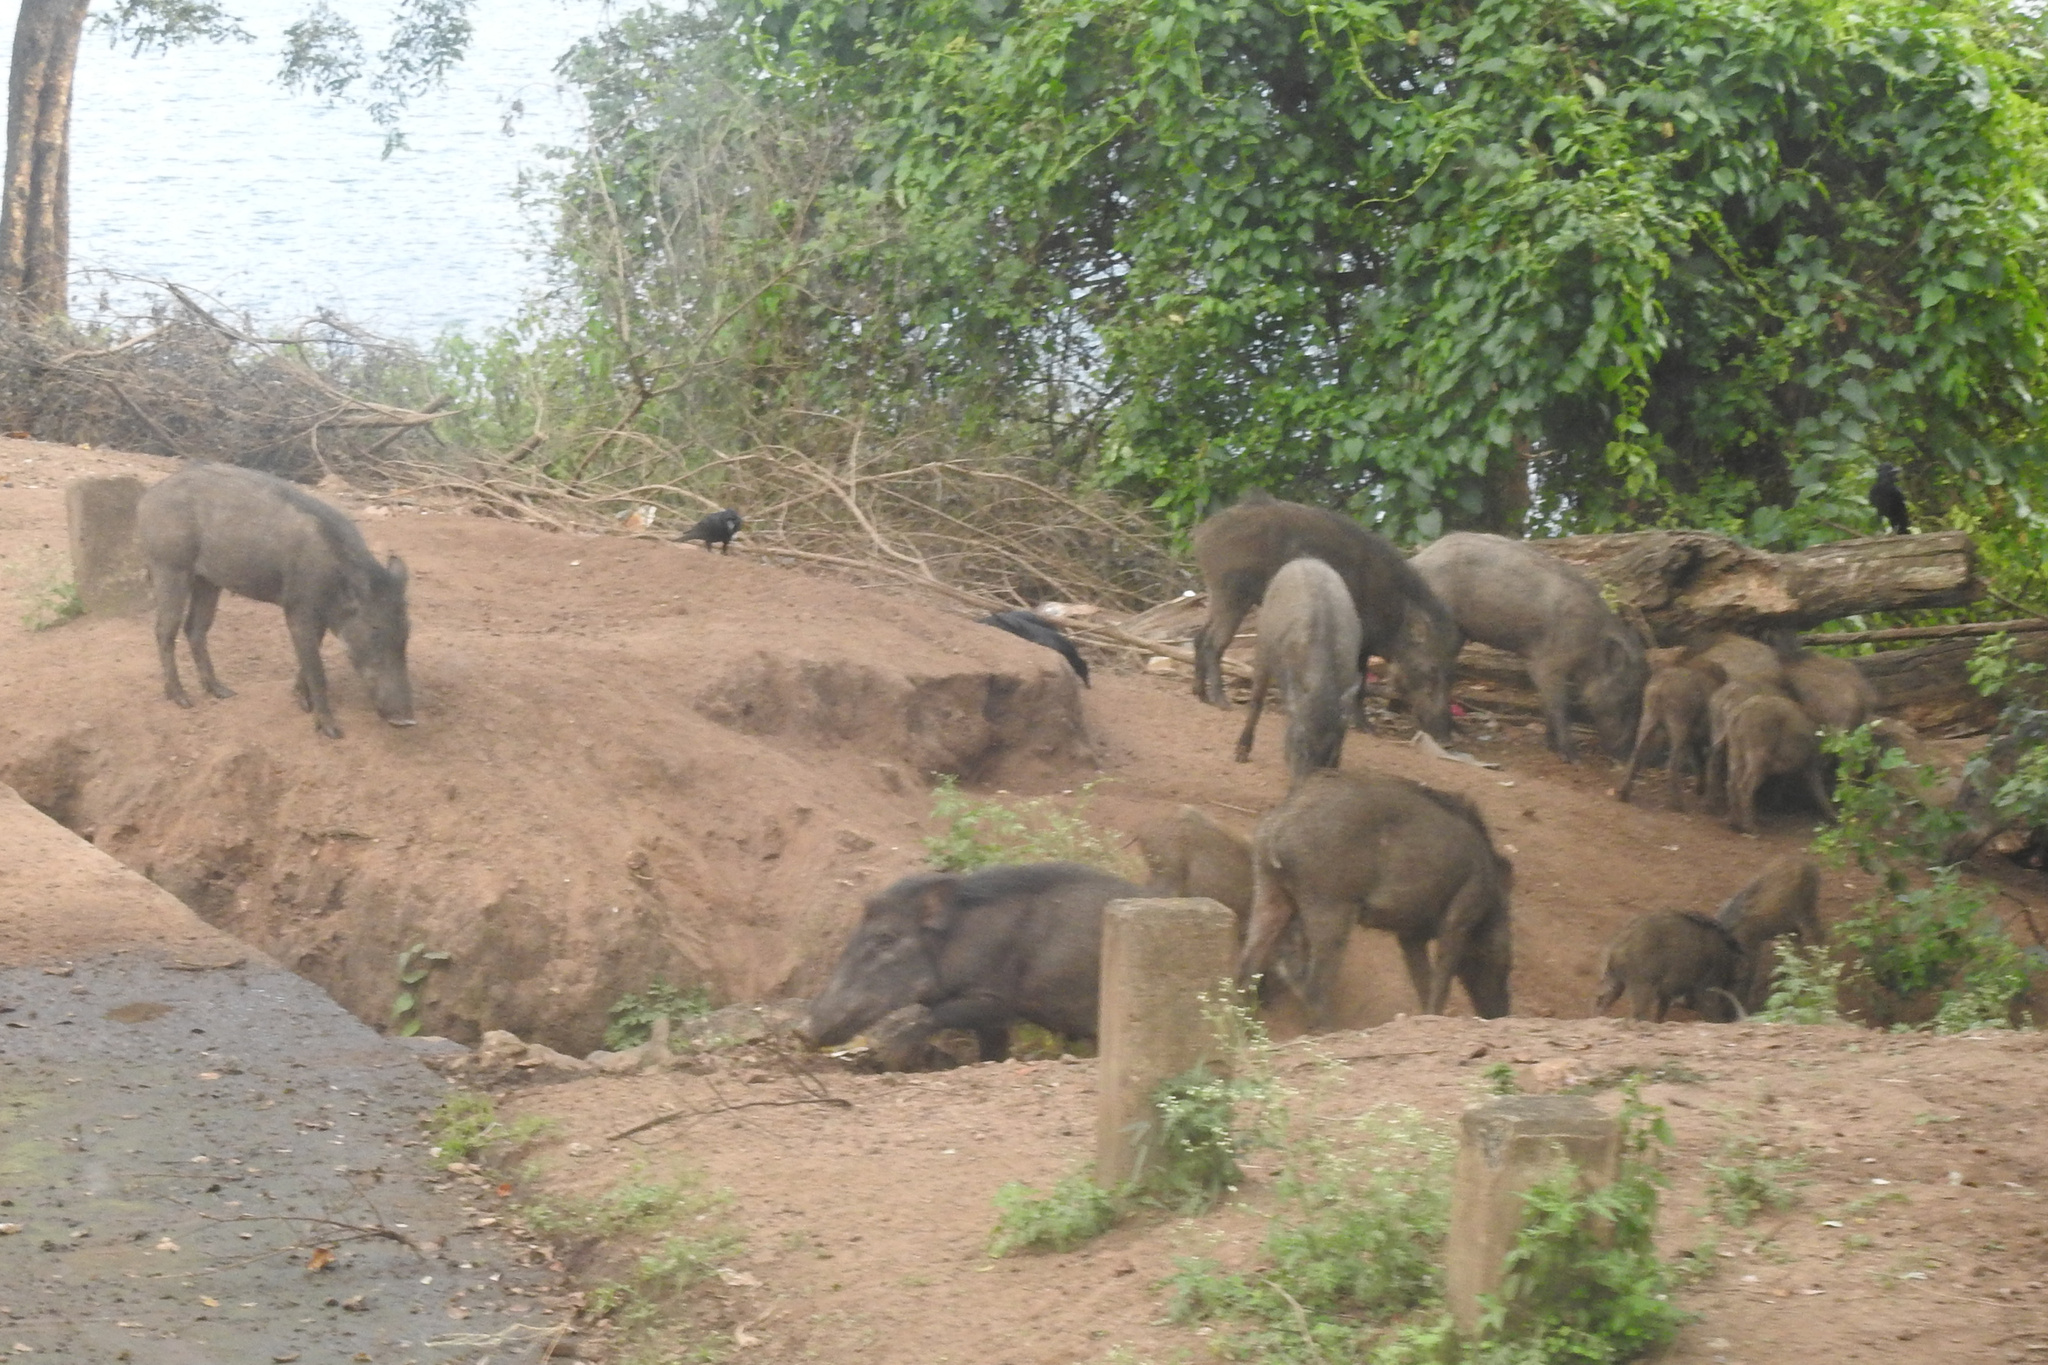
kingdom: Animalia
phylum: Chordata
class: Mammalia
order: Artiodactyla
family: Suidae
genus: Sus
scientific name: Sus scrofa
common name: Wild boar
